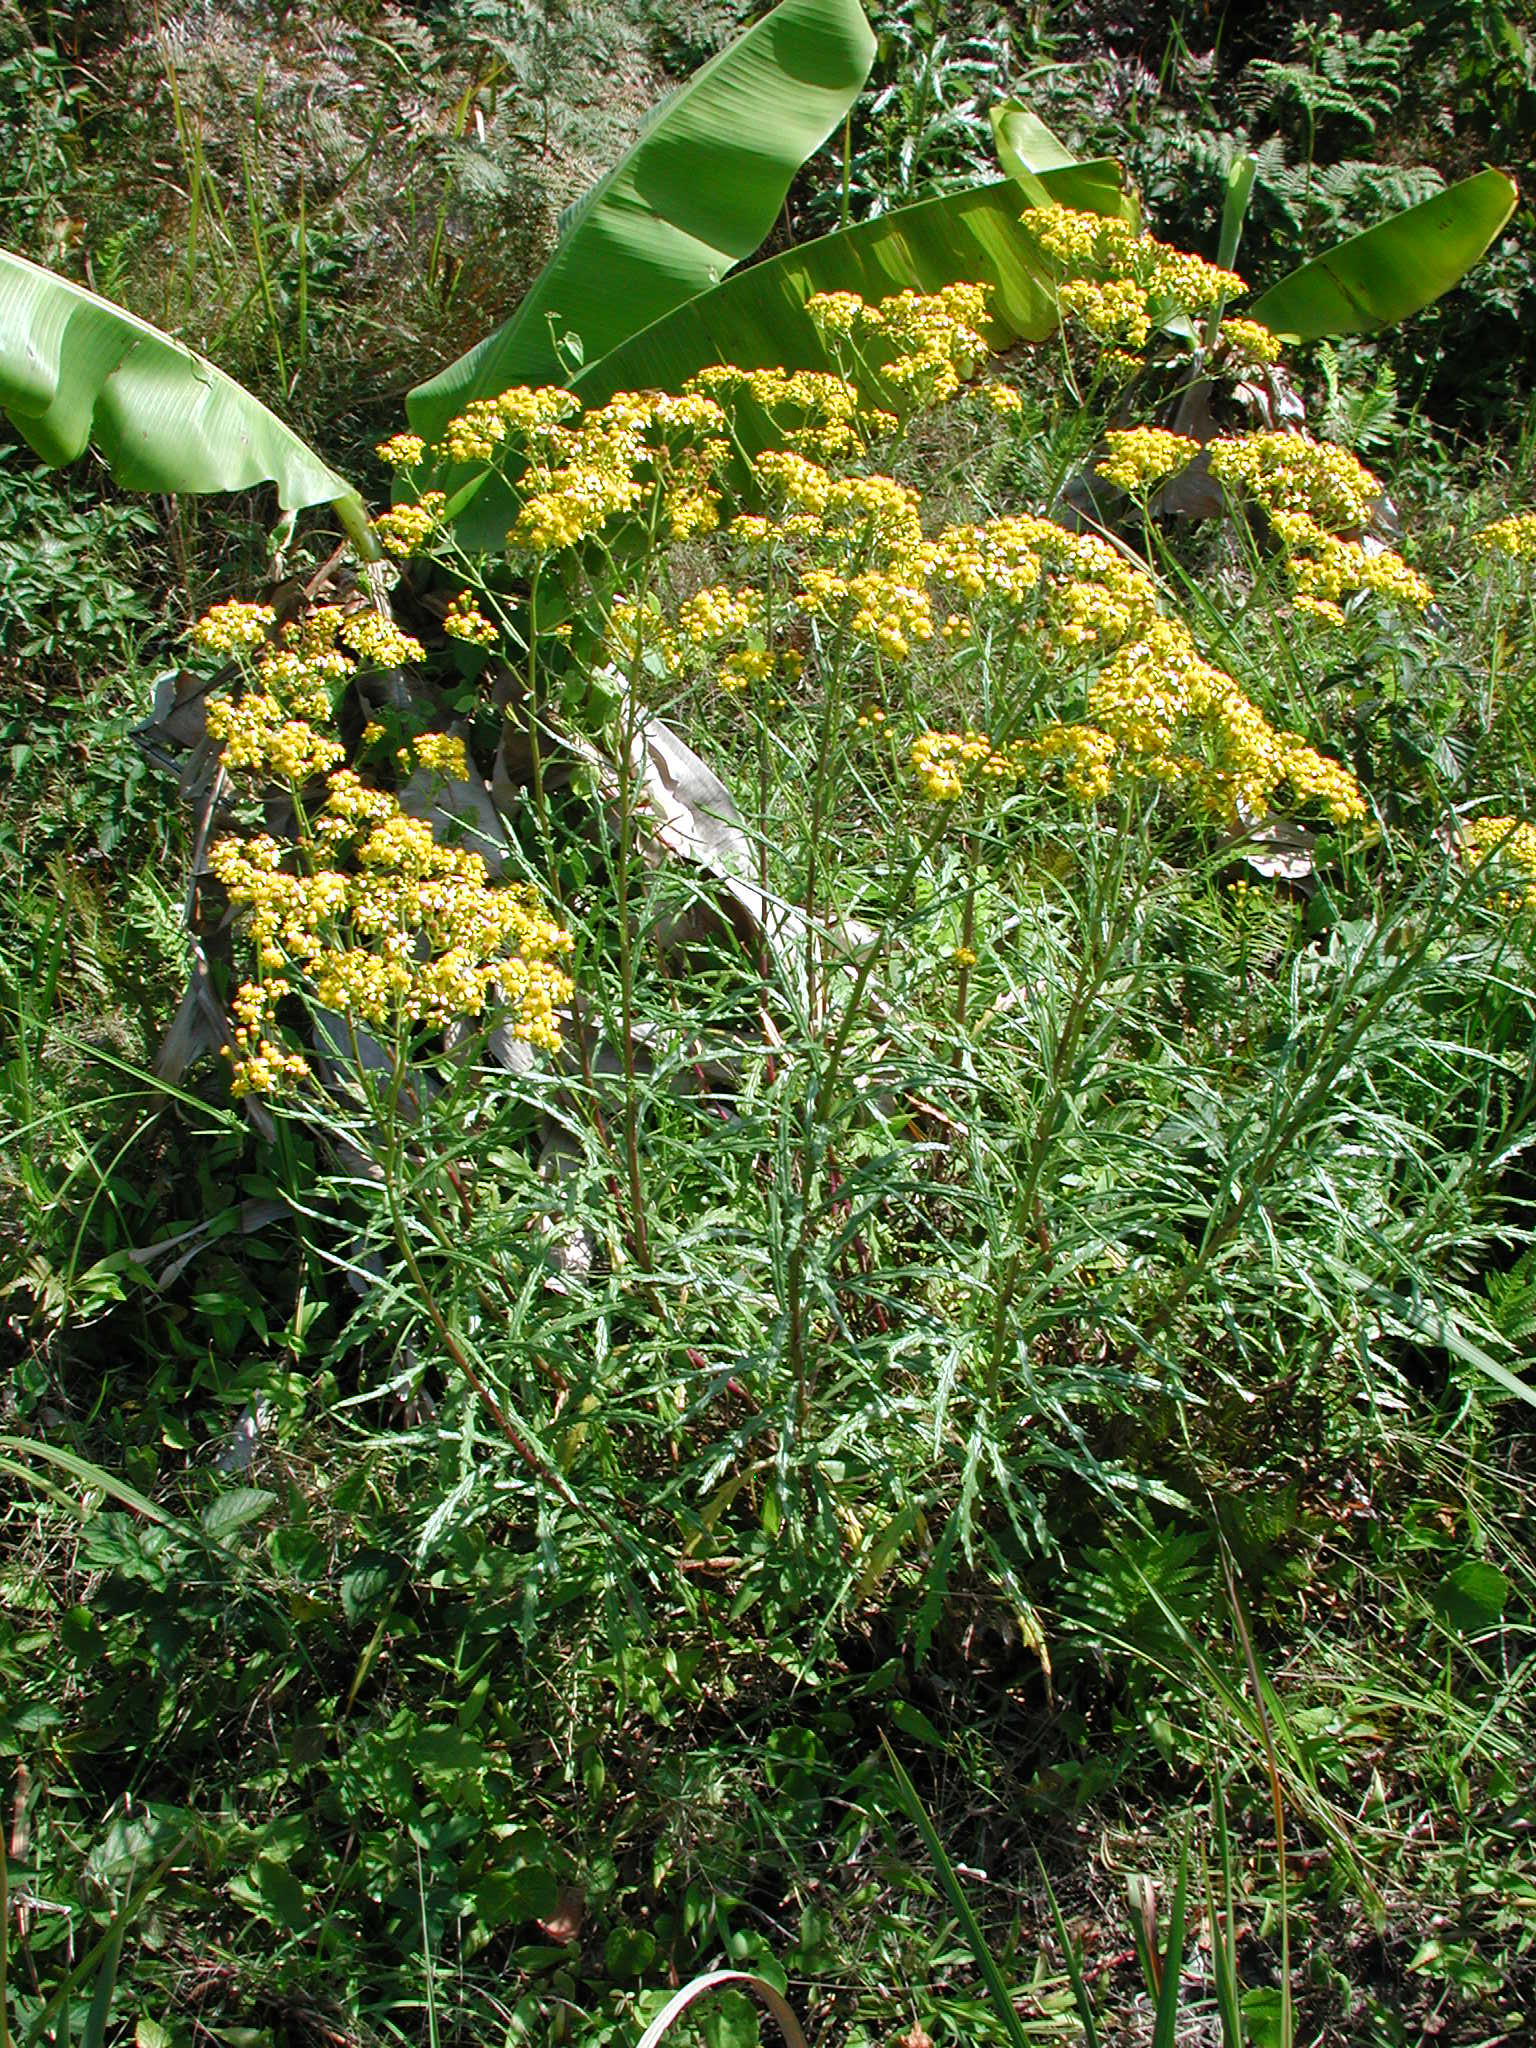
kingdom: Plantae
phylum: Tracheophyta
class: Magnoliopsida
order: Asterales
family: Asteraceae
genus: Senecio
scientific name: Senecio polyanthemoides
